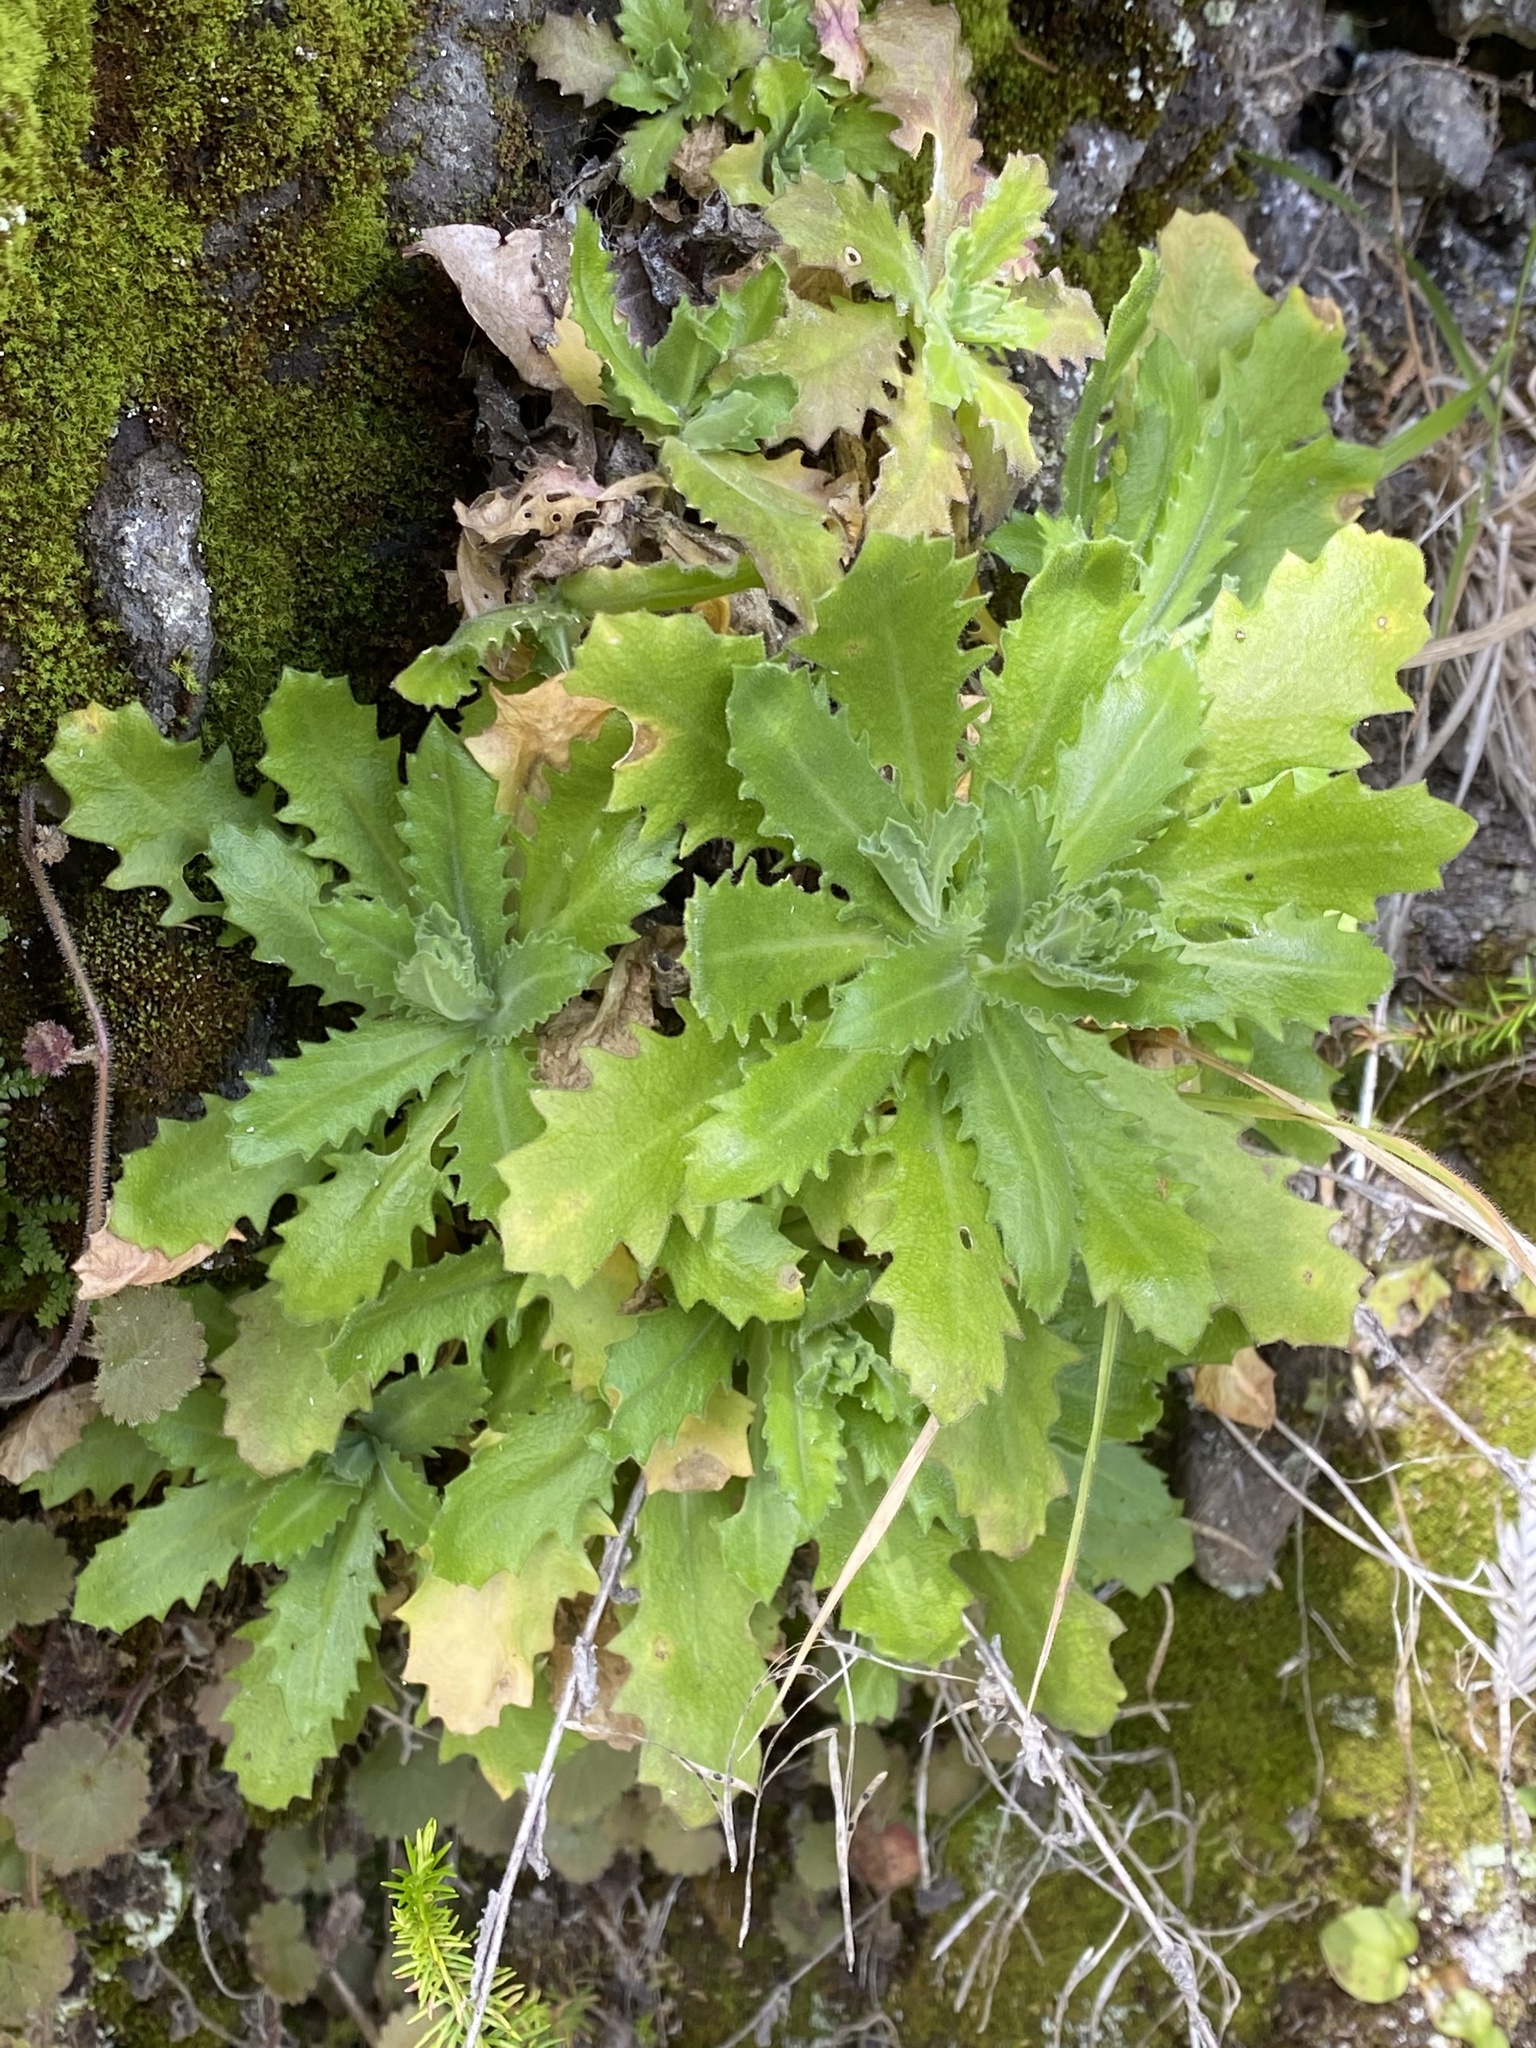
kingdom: Plantae
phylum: Tracheophyta
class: Magnoliopsida
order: Brassicales
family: Brassicaceae
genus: Arabis
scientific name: Arabis caucasica
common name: Gray rockcress
